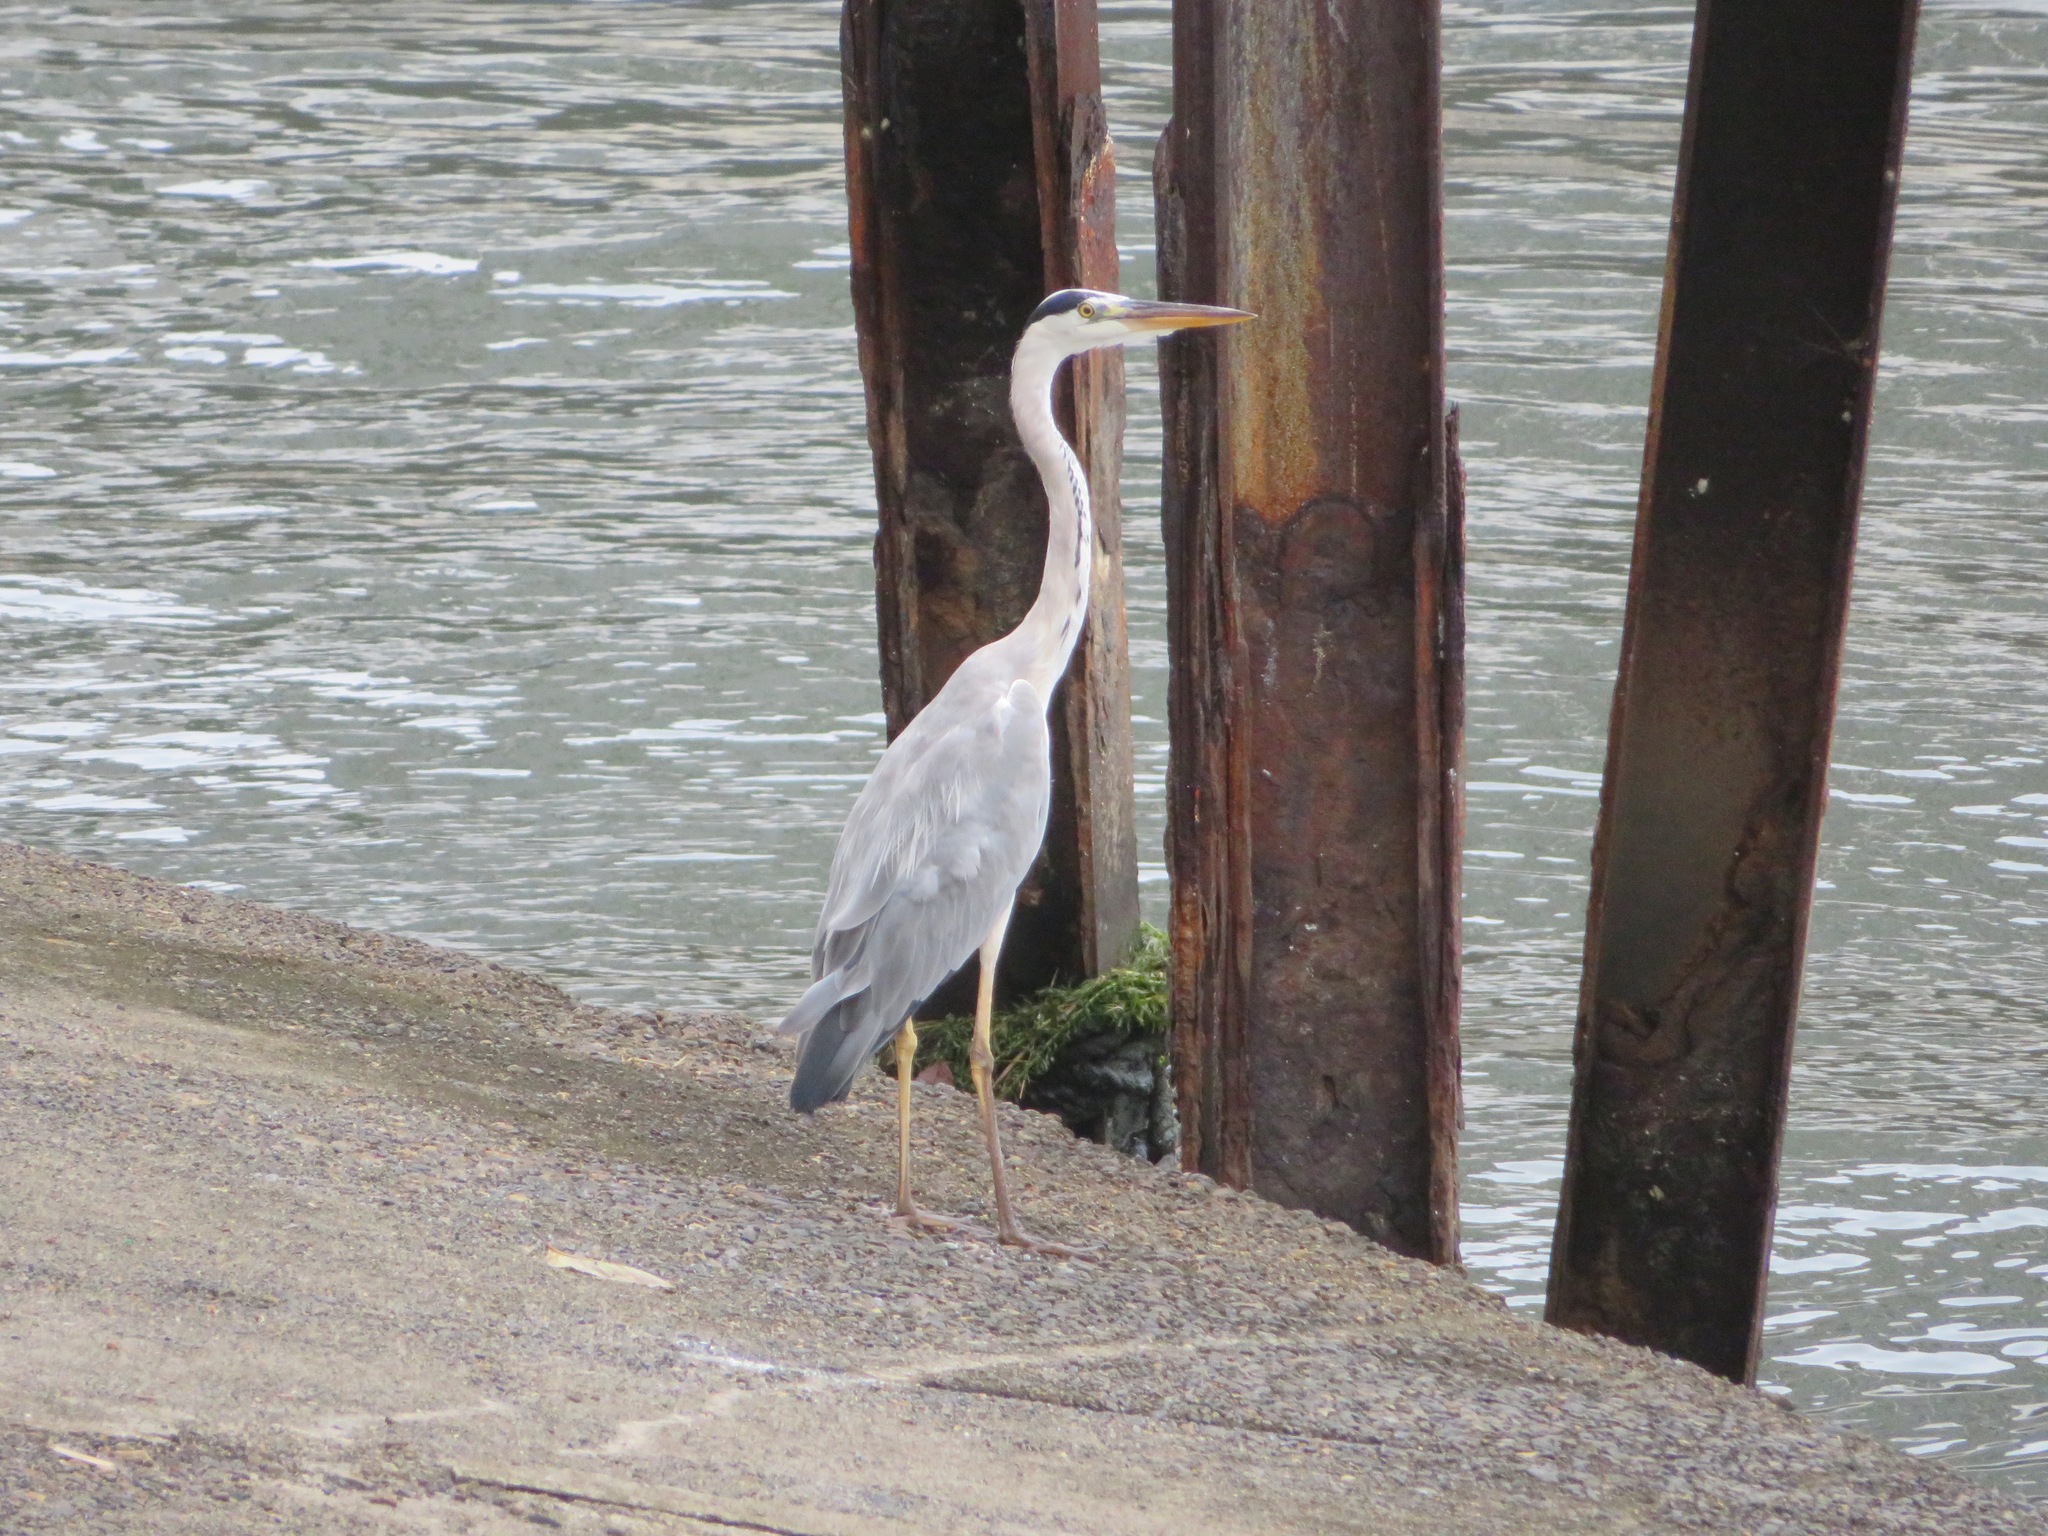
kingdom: Animalia
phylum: Chordata
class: Aves
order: Pelecaniformes
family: Ardeidae
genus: Ardea
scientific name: Ardea cinerea
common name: Grey heron
